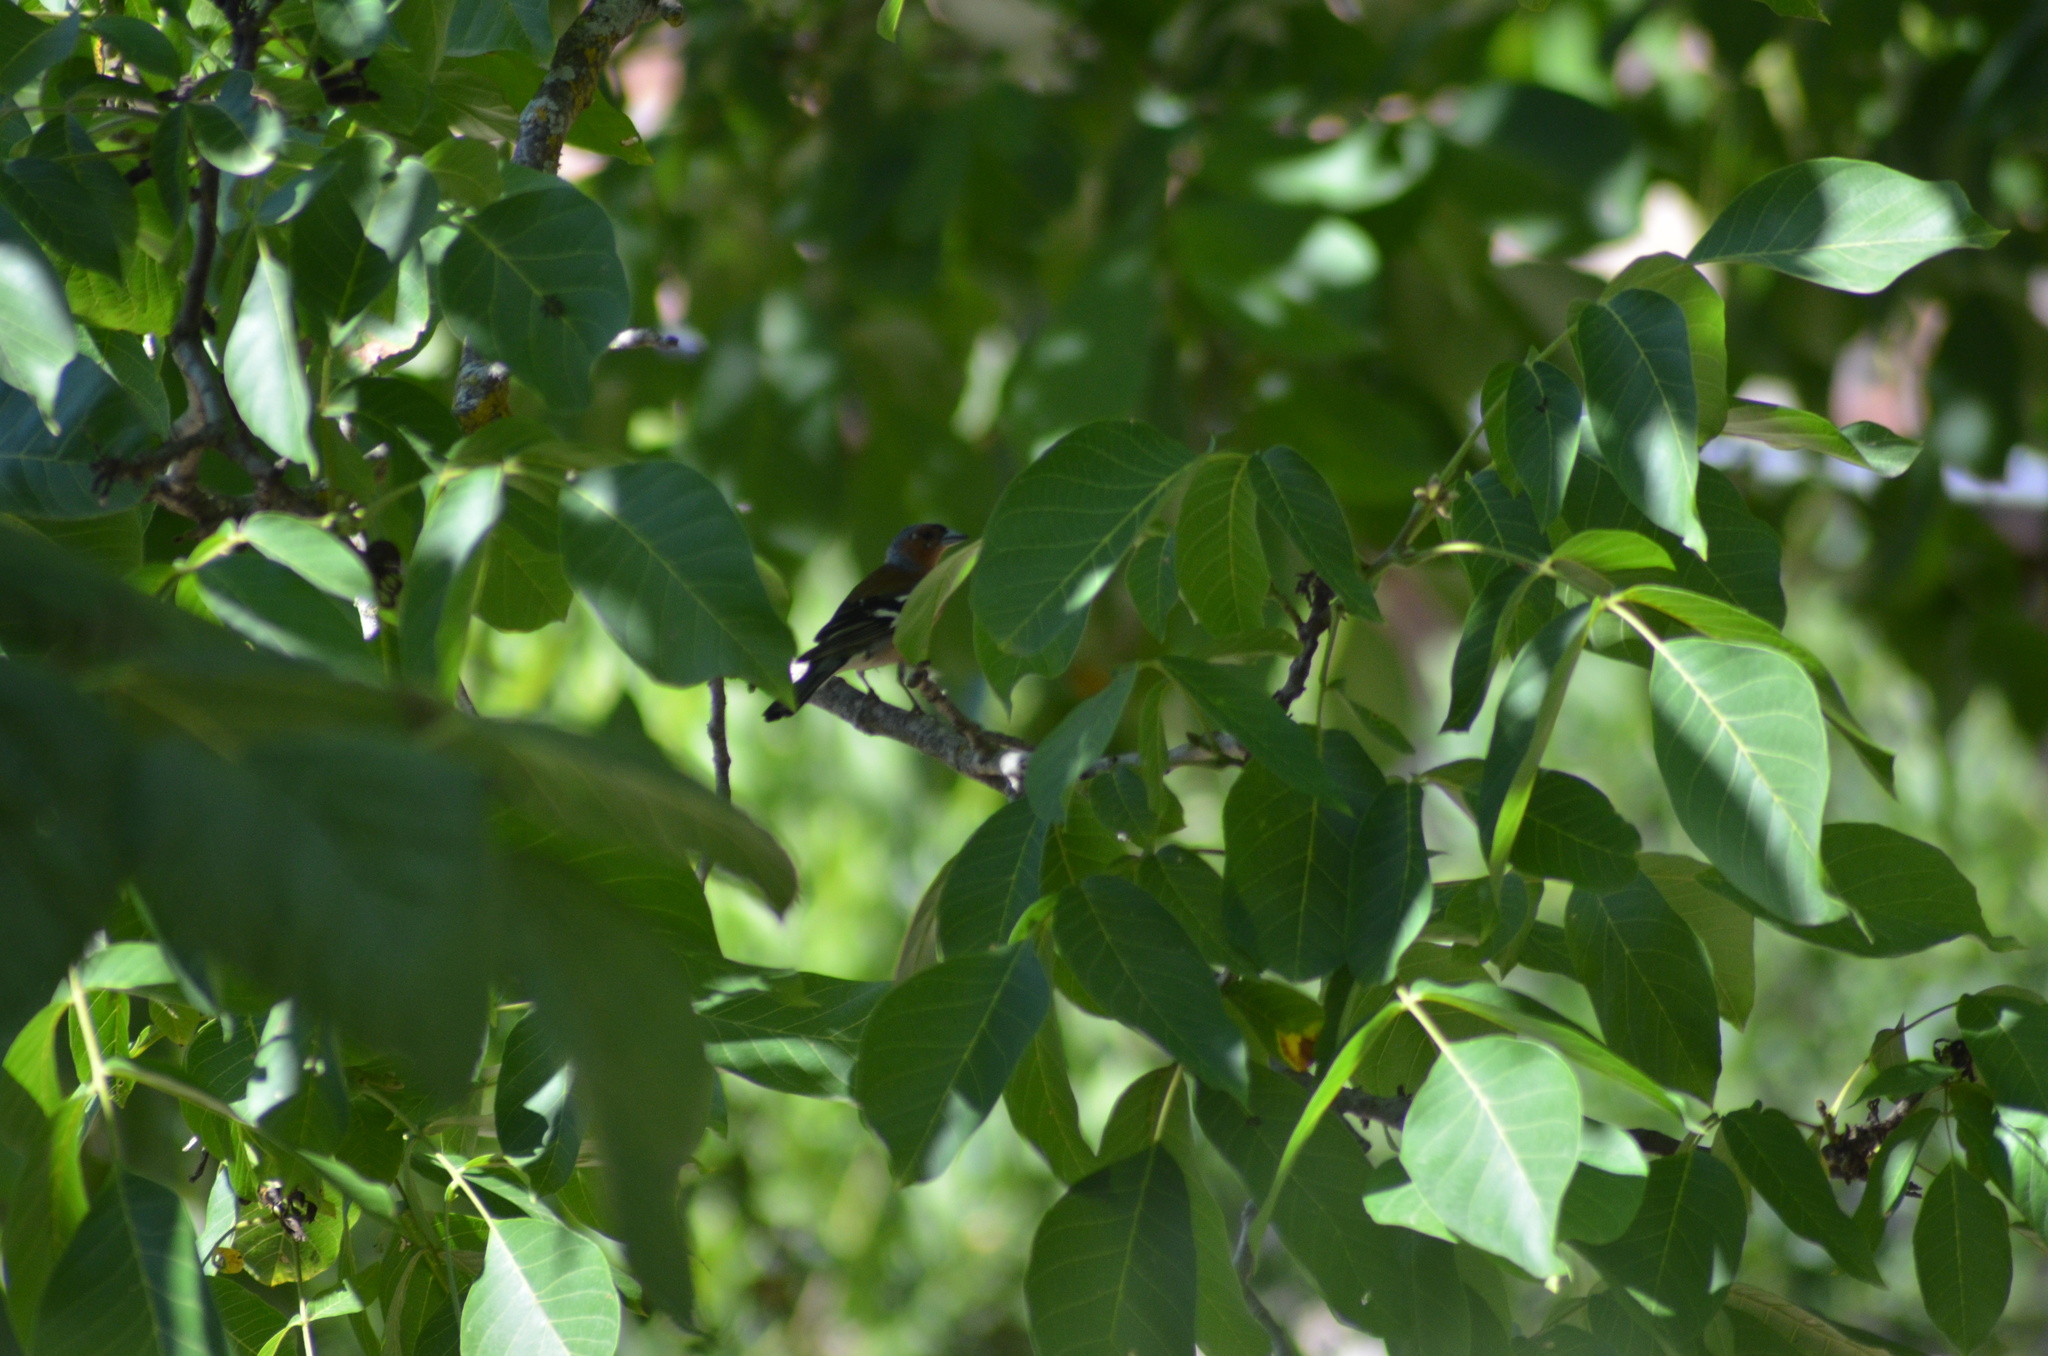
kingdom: Animalia
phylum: Chordata
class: Aves
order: Passeriformes
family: Fringillidae
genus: Fringilla
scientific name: Fringilla coelebs
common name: Common chaffinch
